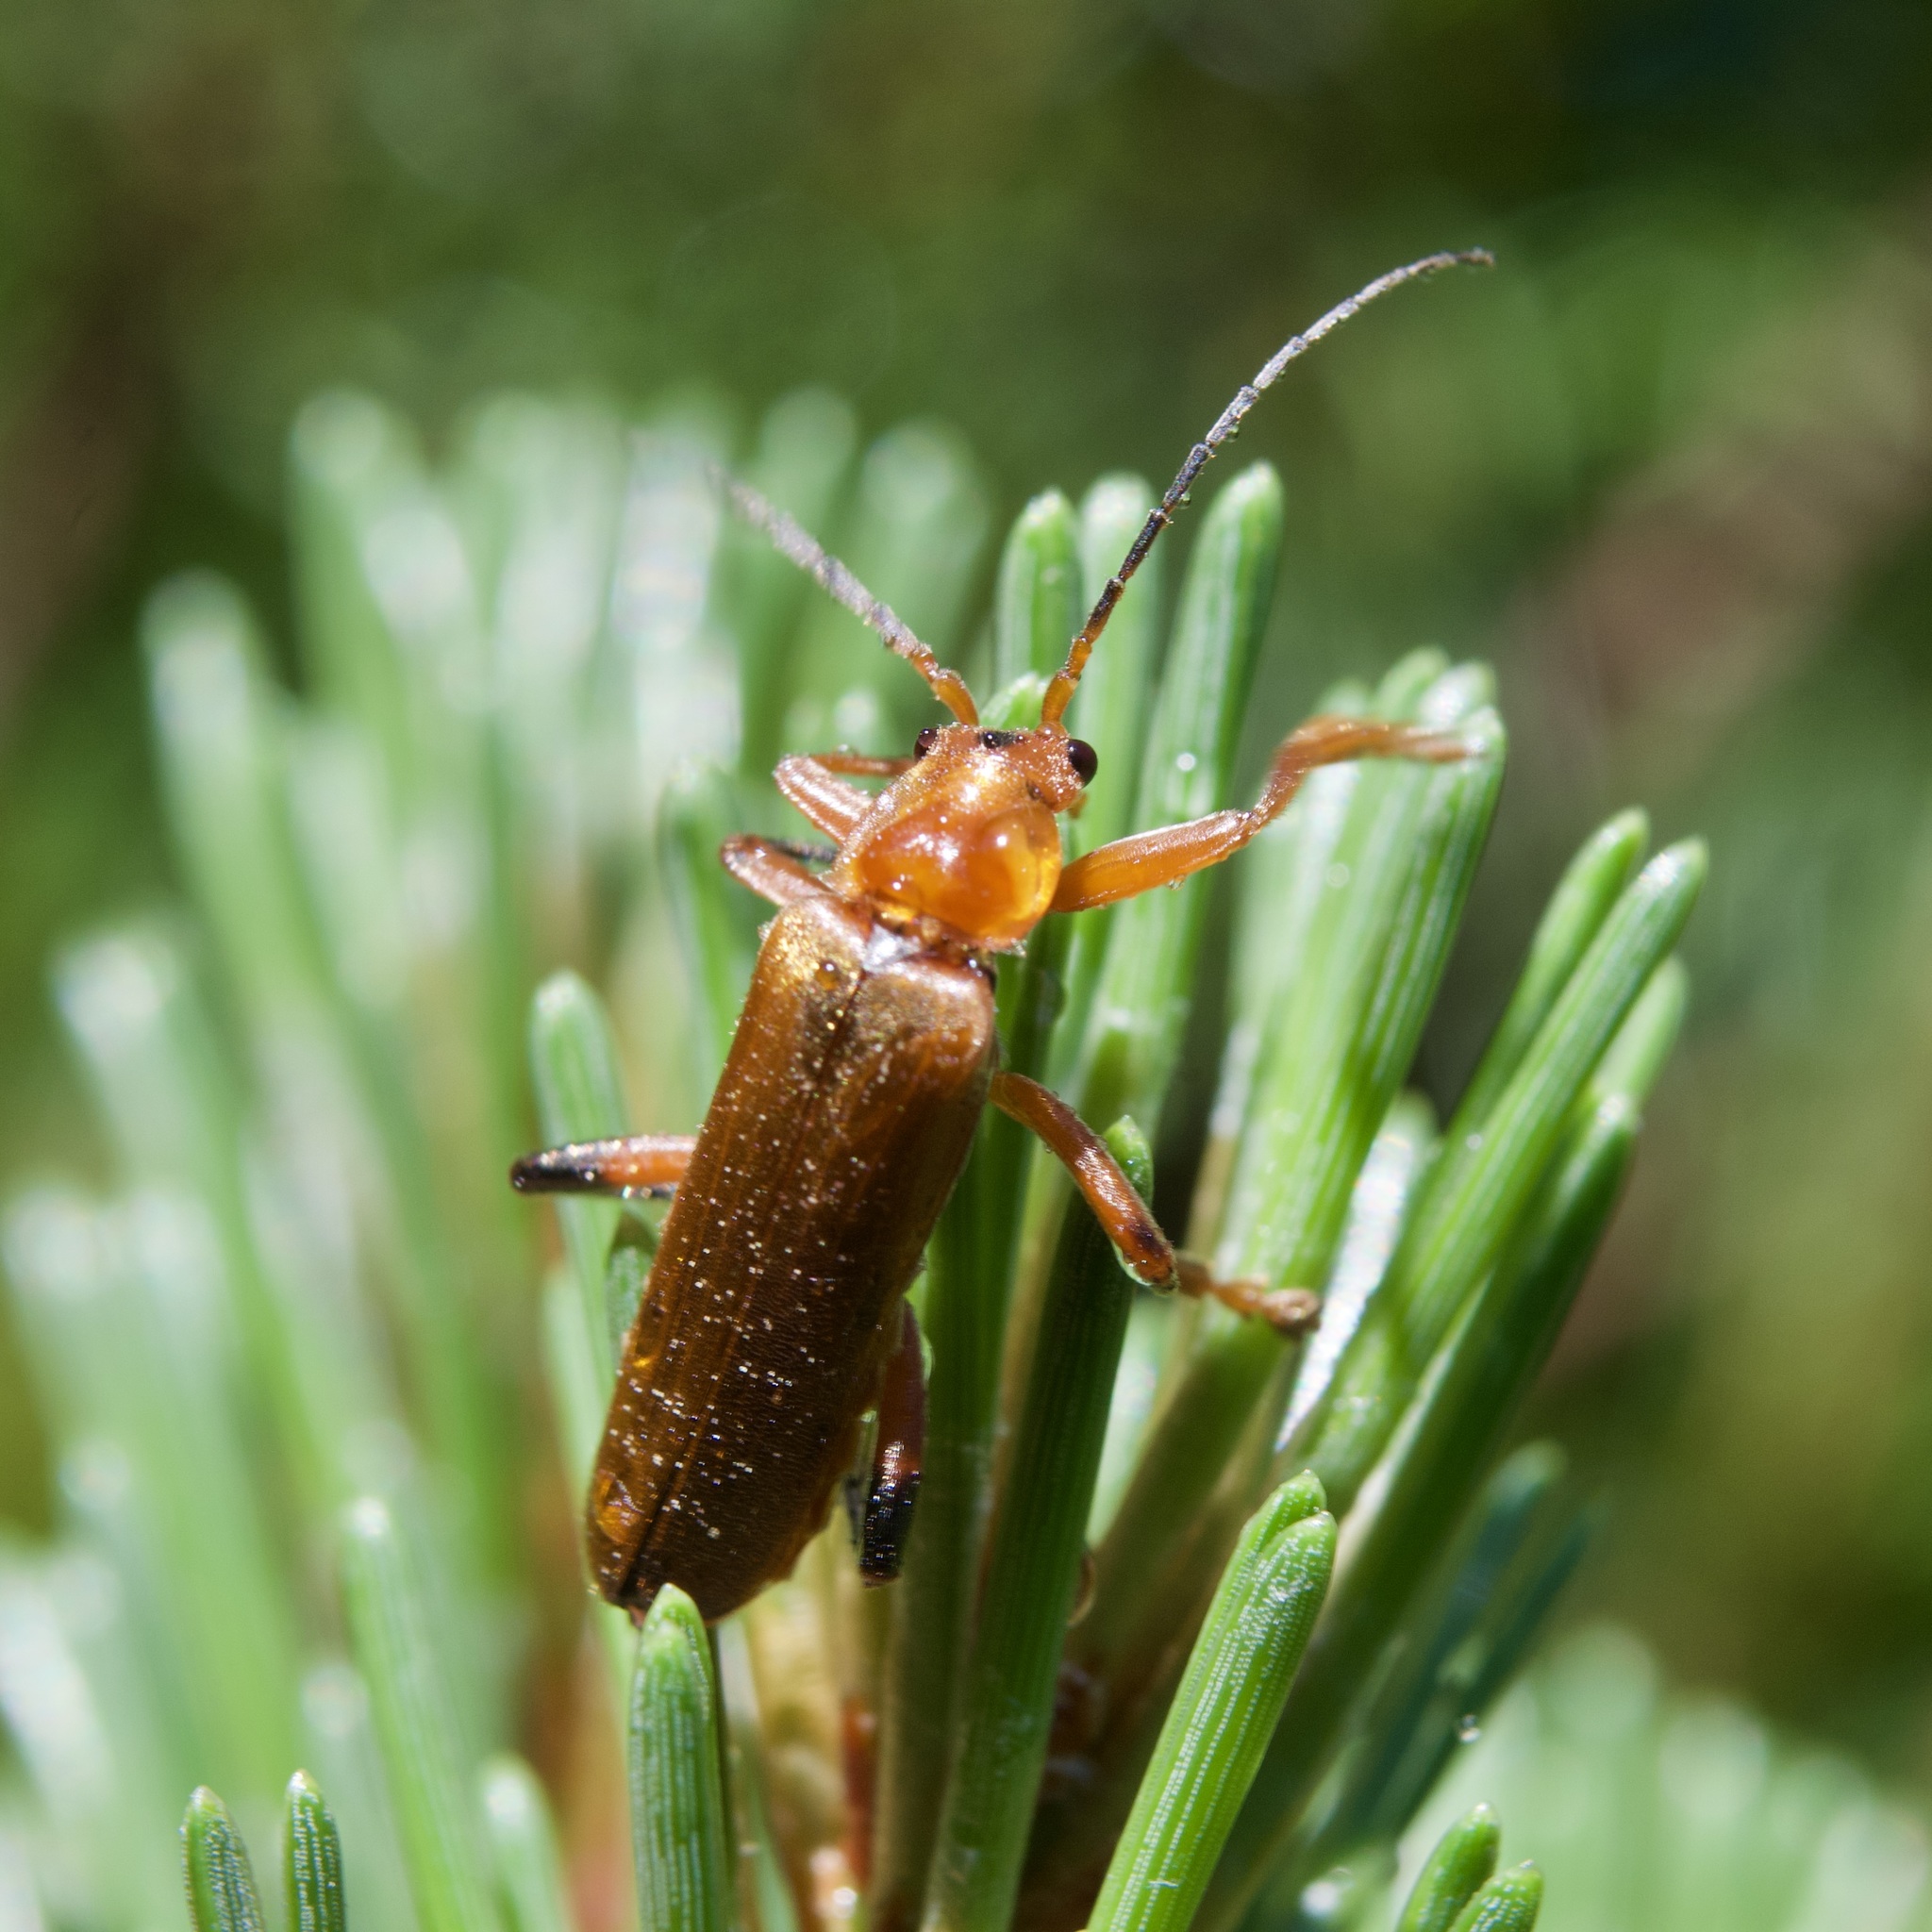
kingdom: Animalia
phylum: Arthropoda
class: Insecta
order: Coleoptera
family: Cantharidae
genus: Cantharis
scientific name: Cantharis livida
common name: Livid soldier beetle
